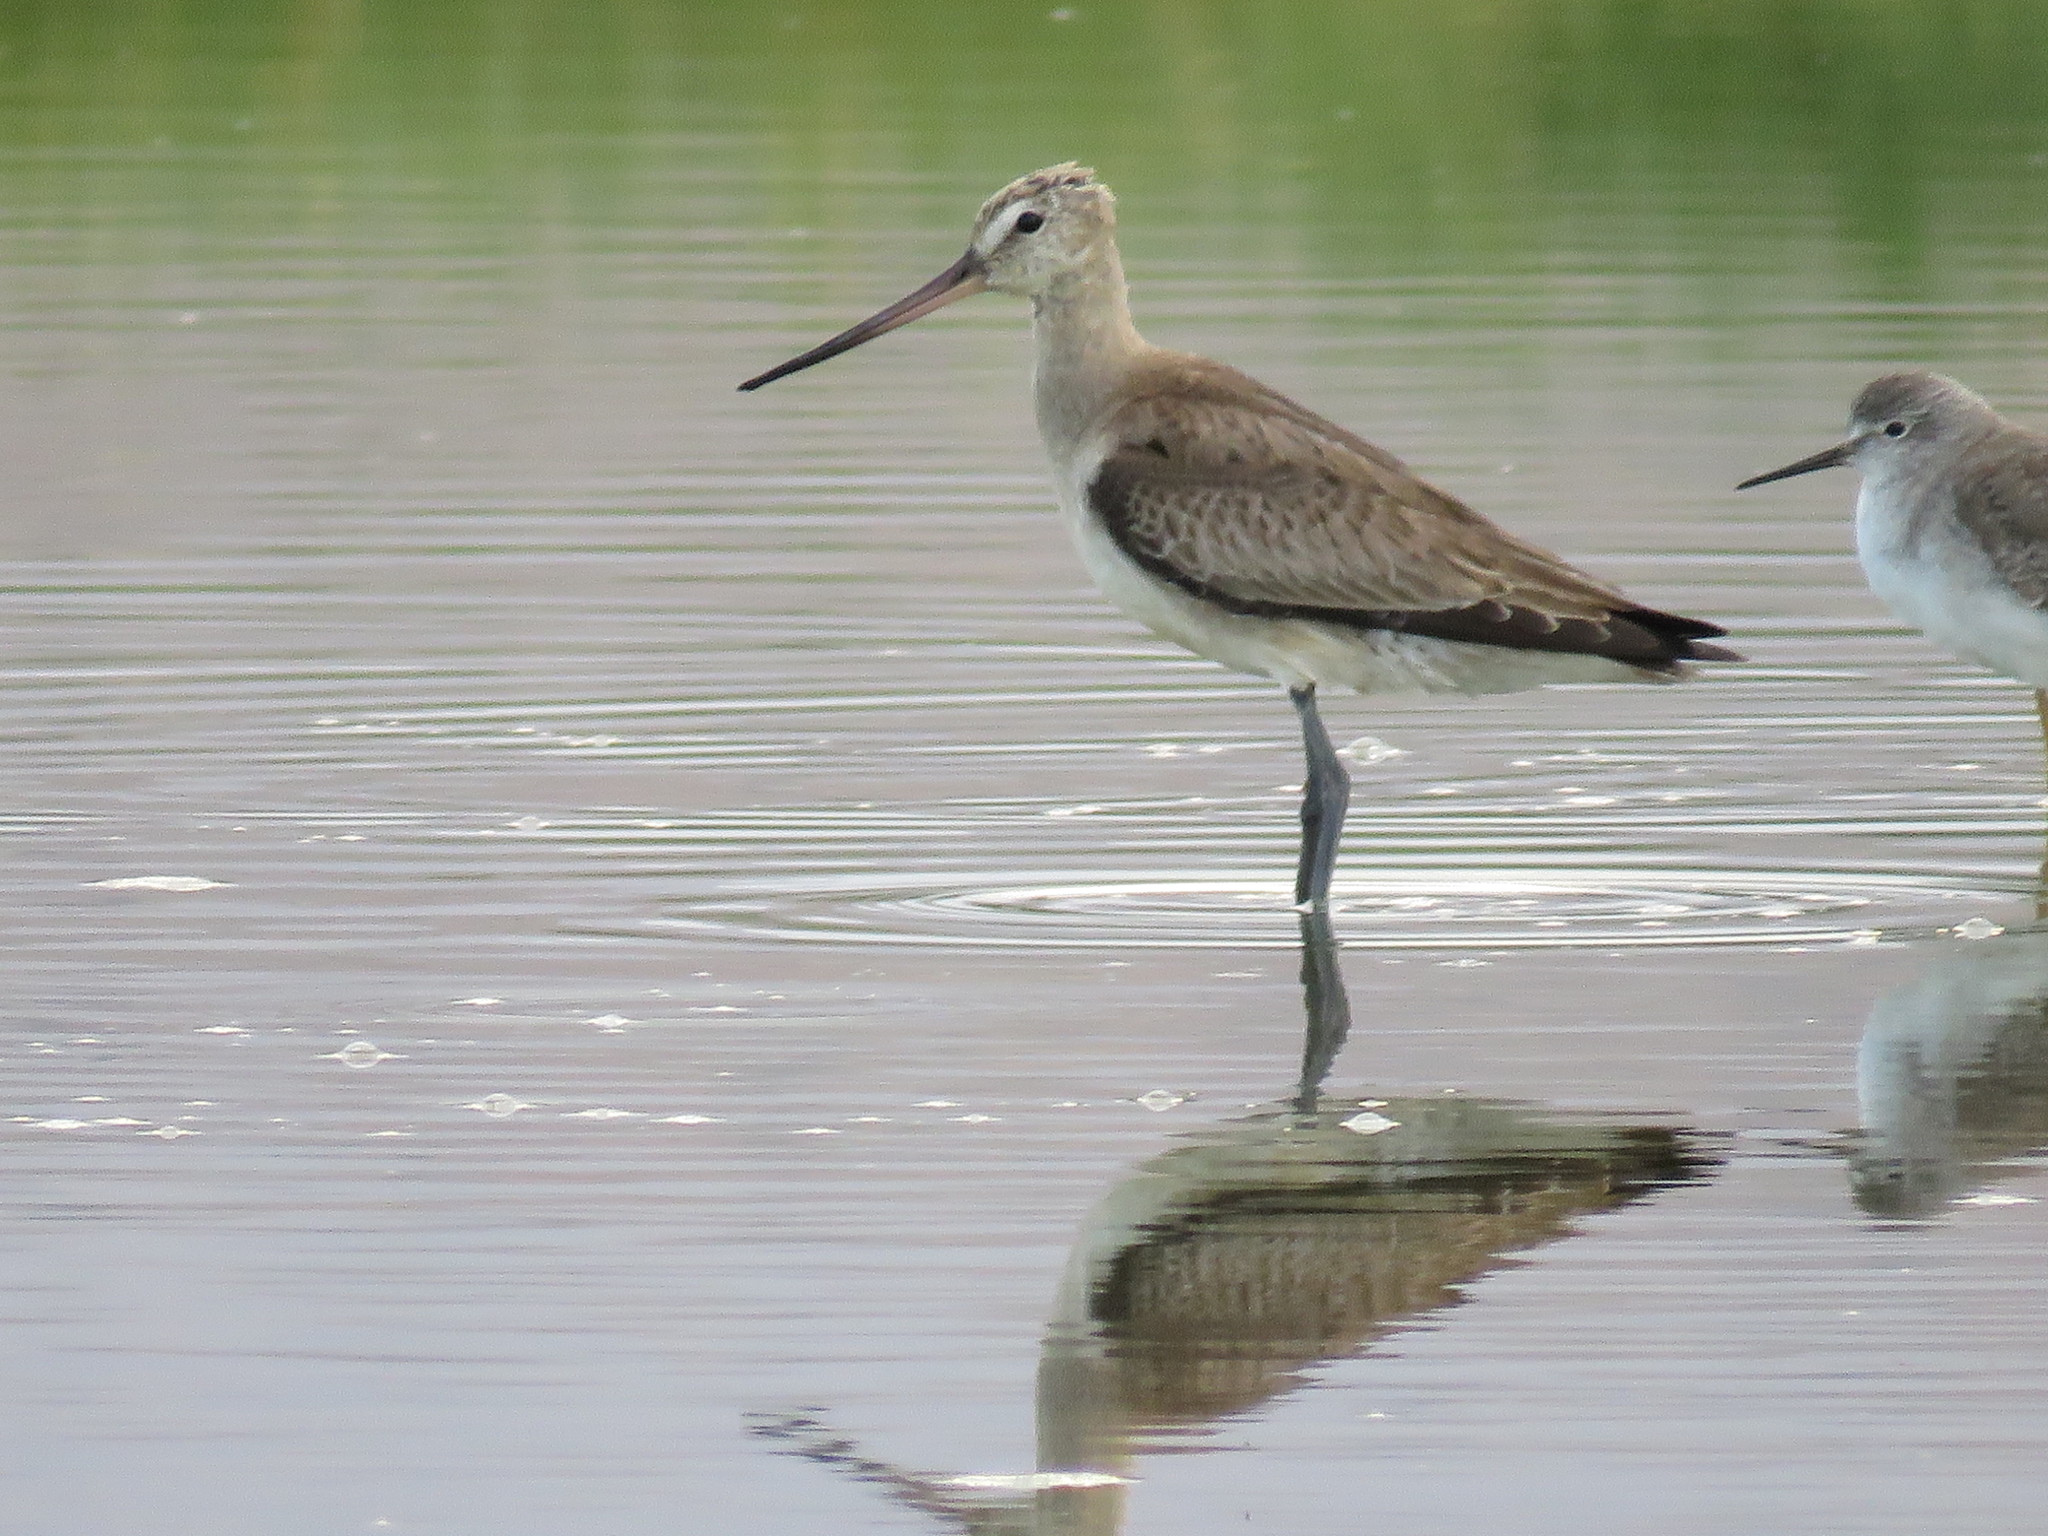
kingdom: Animalia
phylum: Chordata
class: Aves
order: Charadriiformes
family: Scolopacidae
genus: Limosa
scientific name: Limosa haemastica
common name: Hudsonian godwit
